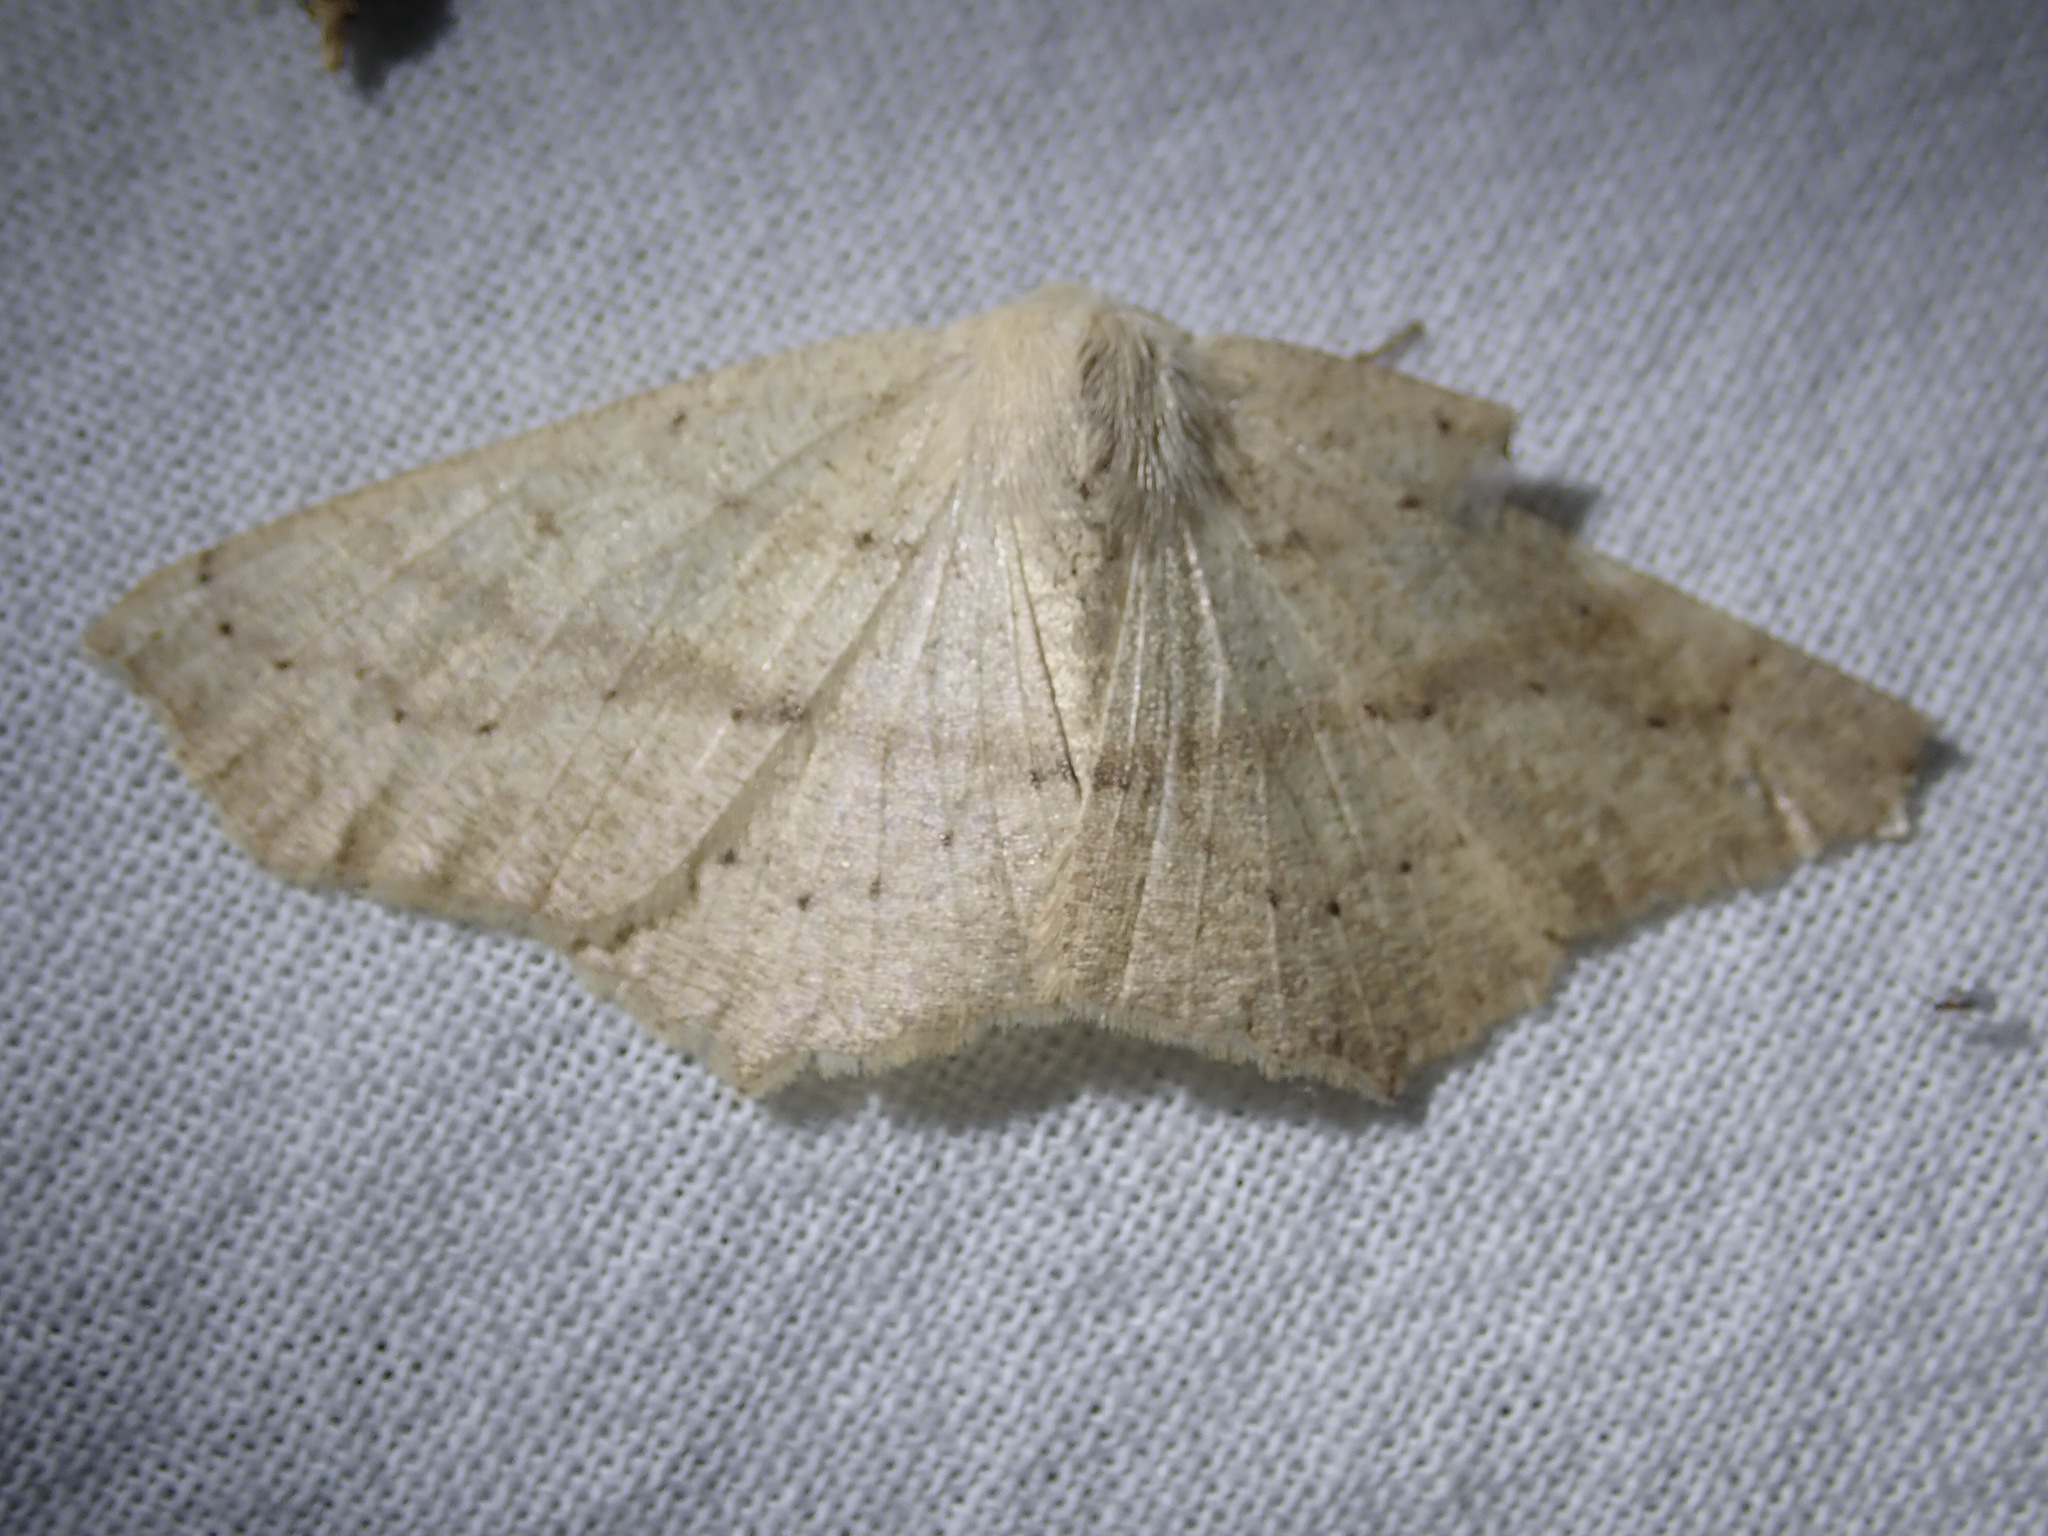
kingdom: Animalia
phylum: Arthropoda
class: Insecta
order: Lepidoptera
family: Geometridae
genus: Sabulodes
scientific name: Sabulodes aegrotata
